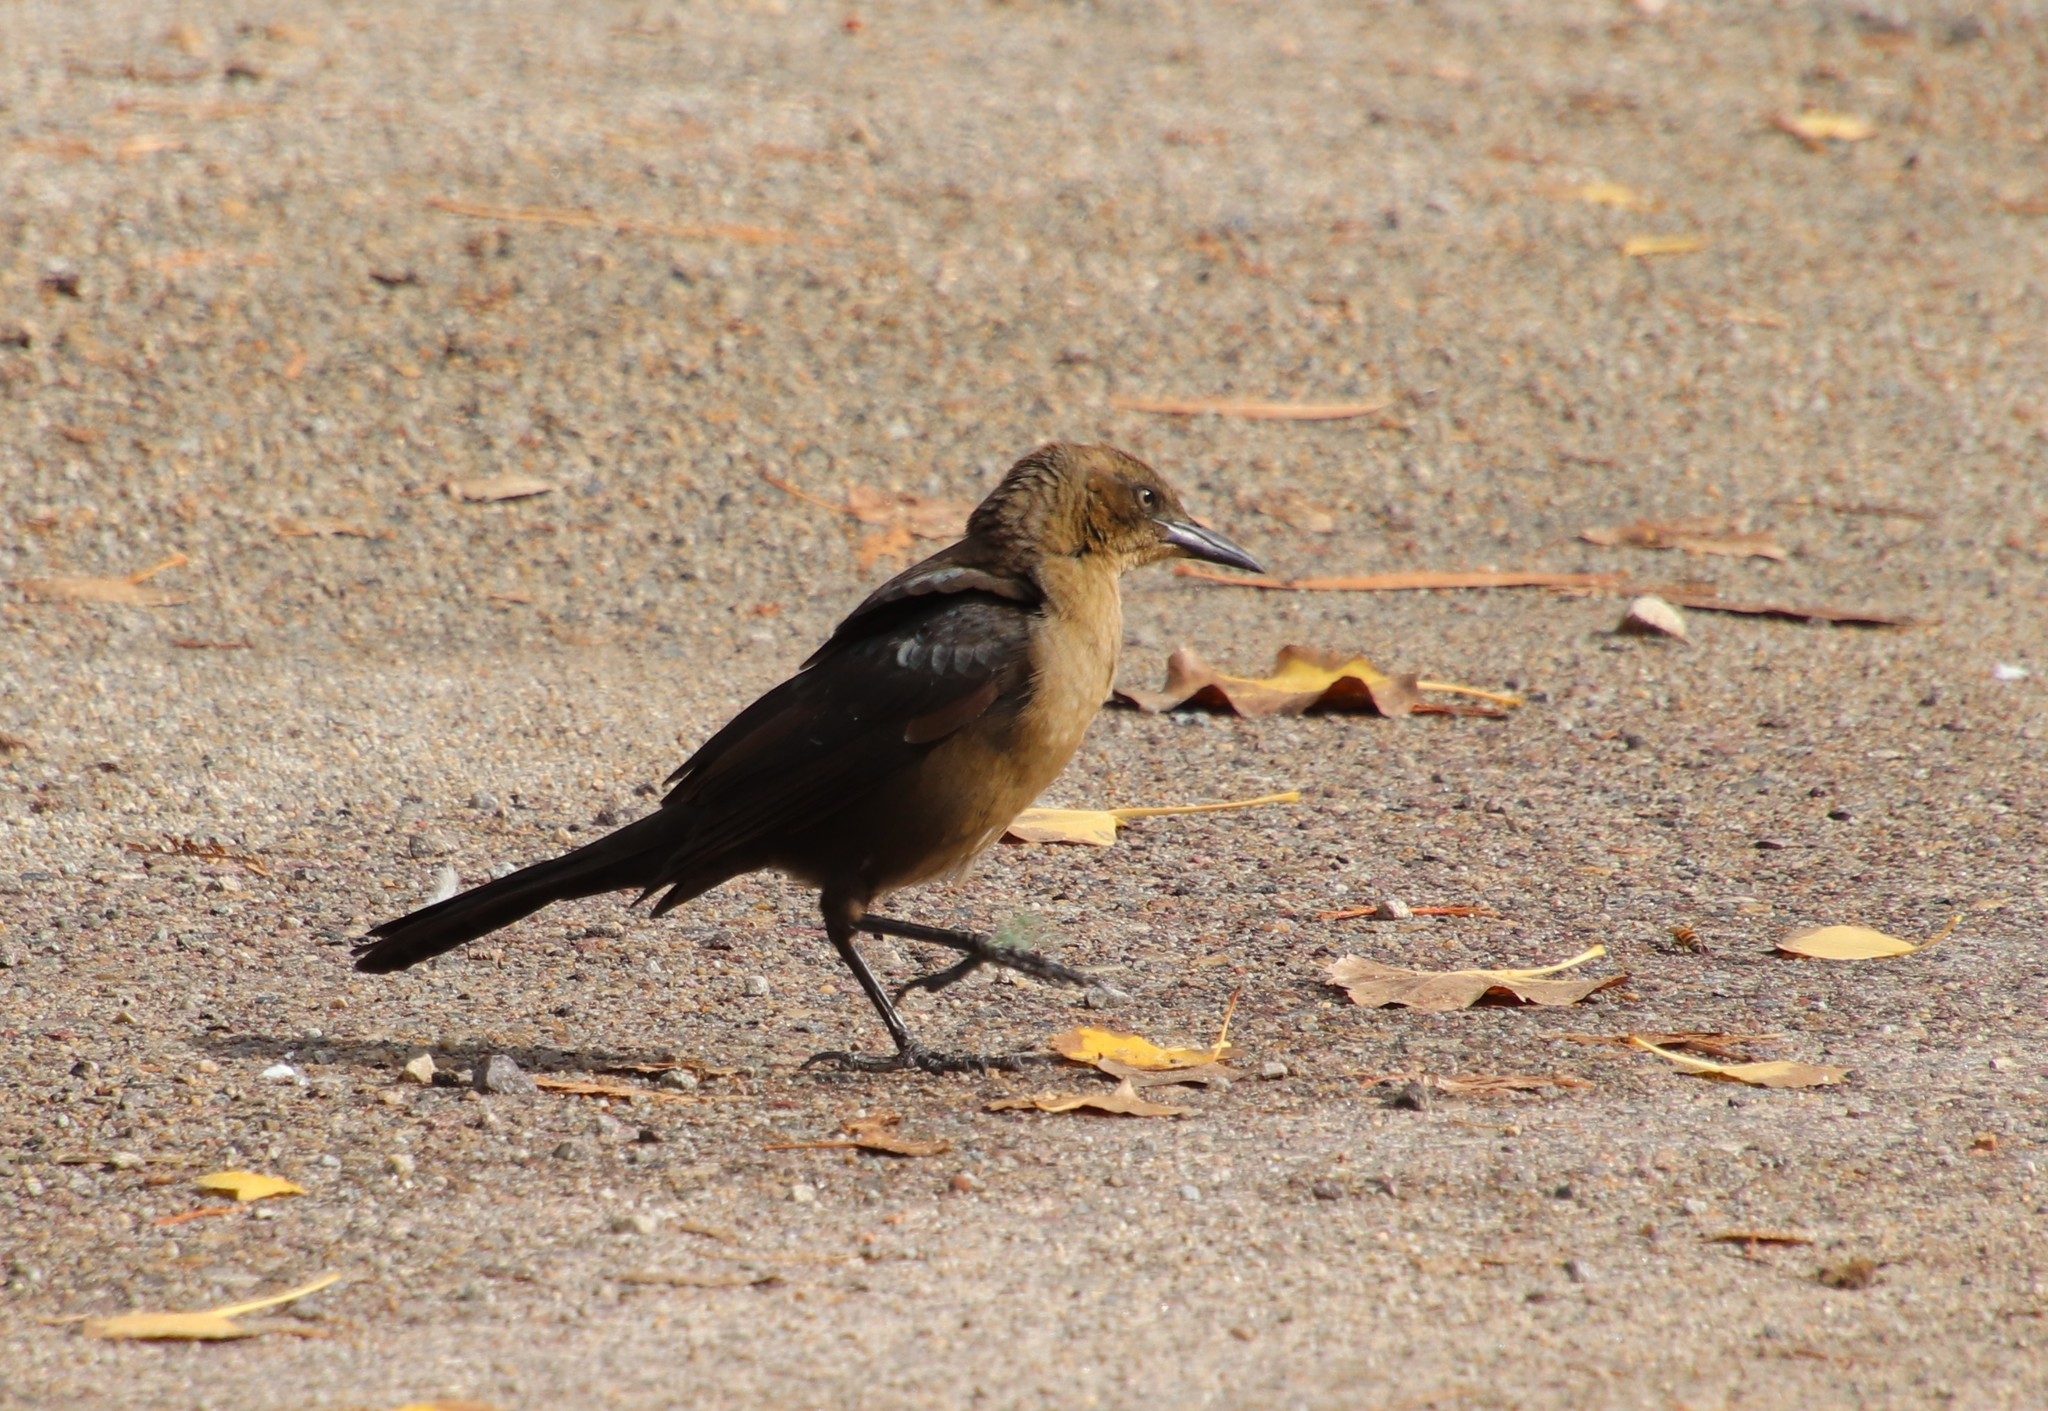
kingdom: Animalia
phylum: Chordata
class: Aves
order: Passeriformes
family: Icteridae
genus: Quiscalus
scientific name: Quiscalus mexicanus
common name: Great-tailed grackle
